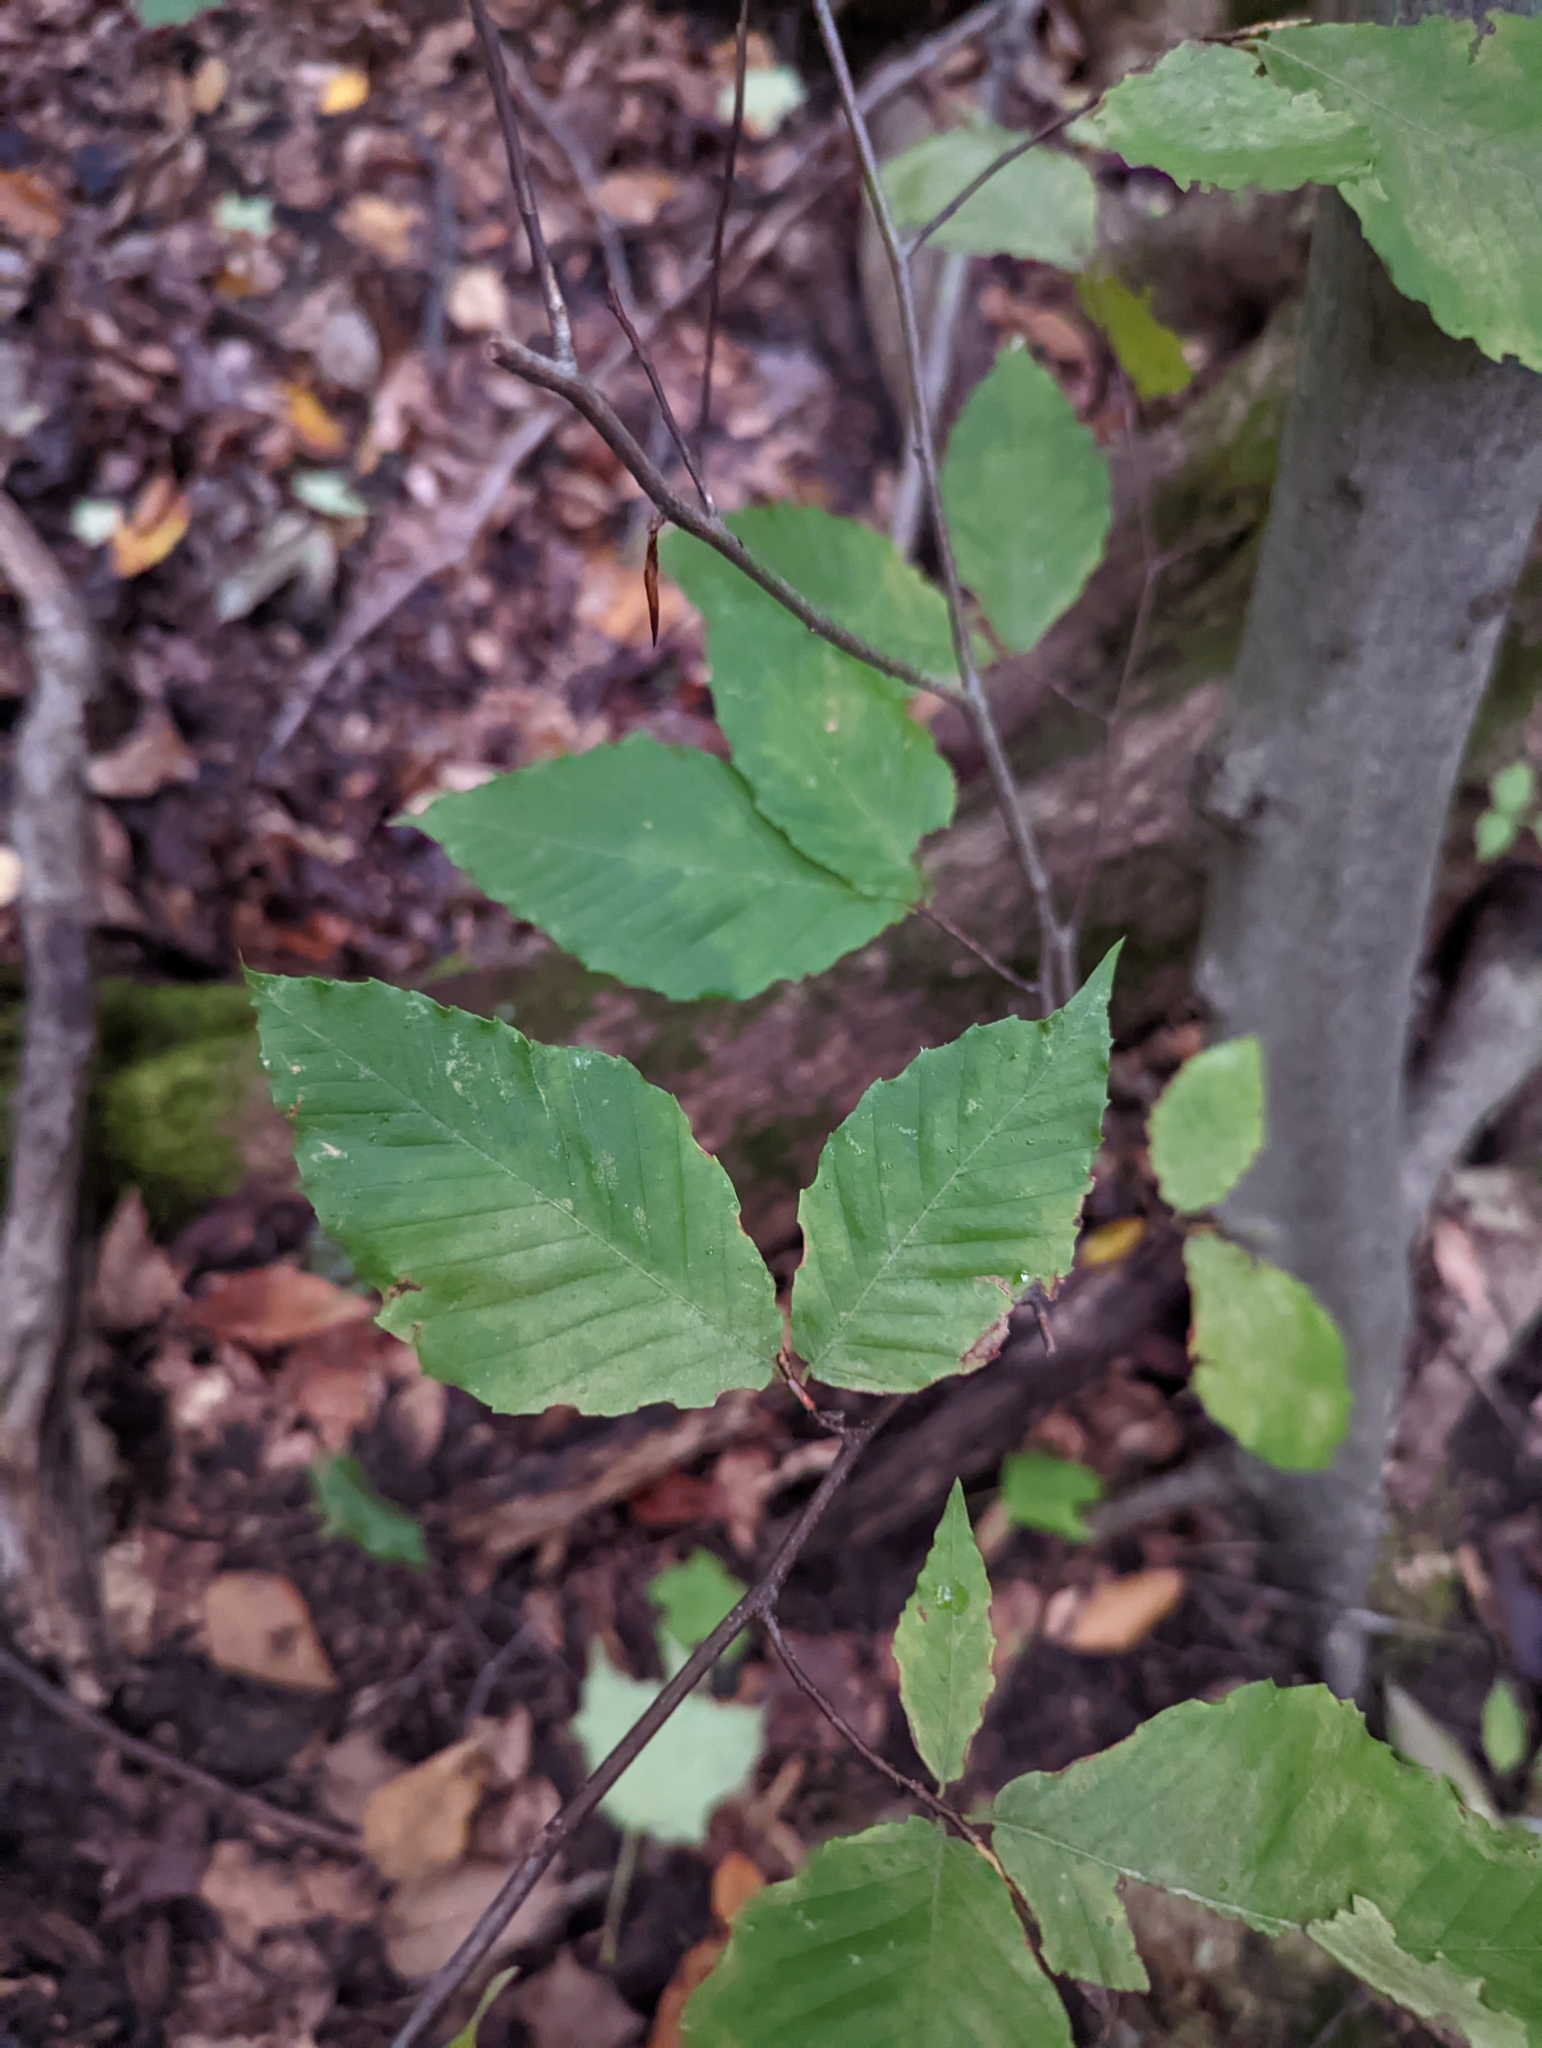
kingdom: Plantae
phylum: Tracheophyta
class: Magnoliopsida
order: Fagales
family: Fagaceae
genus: Fagus
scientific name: Fagus grandifolia
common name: American beech
